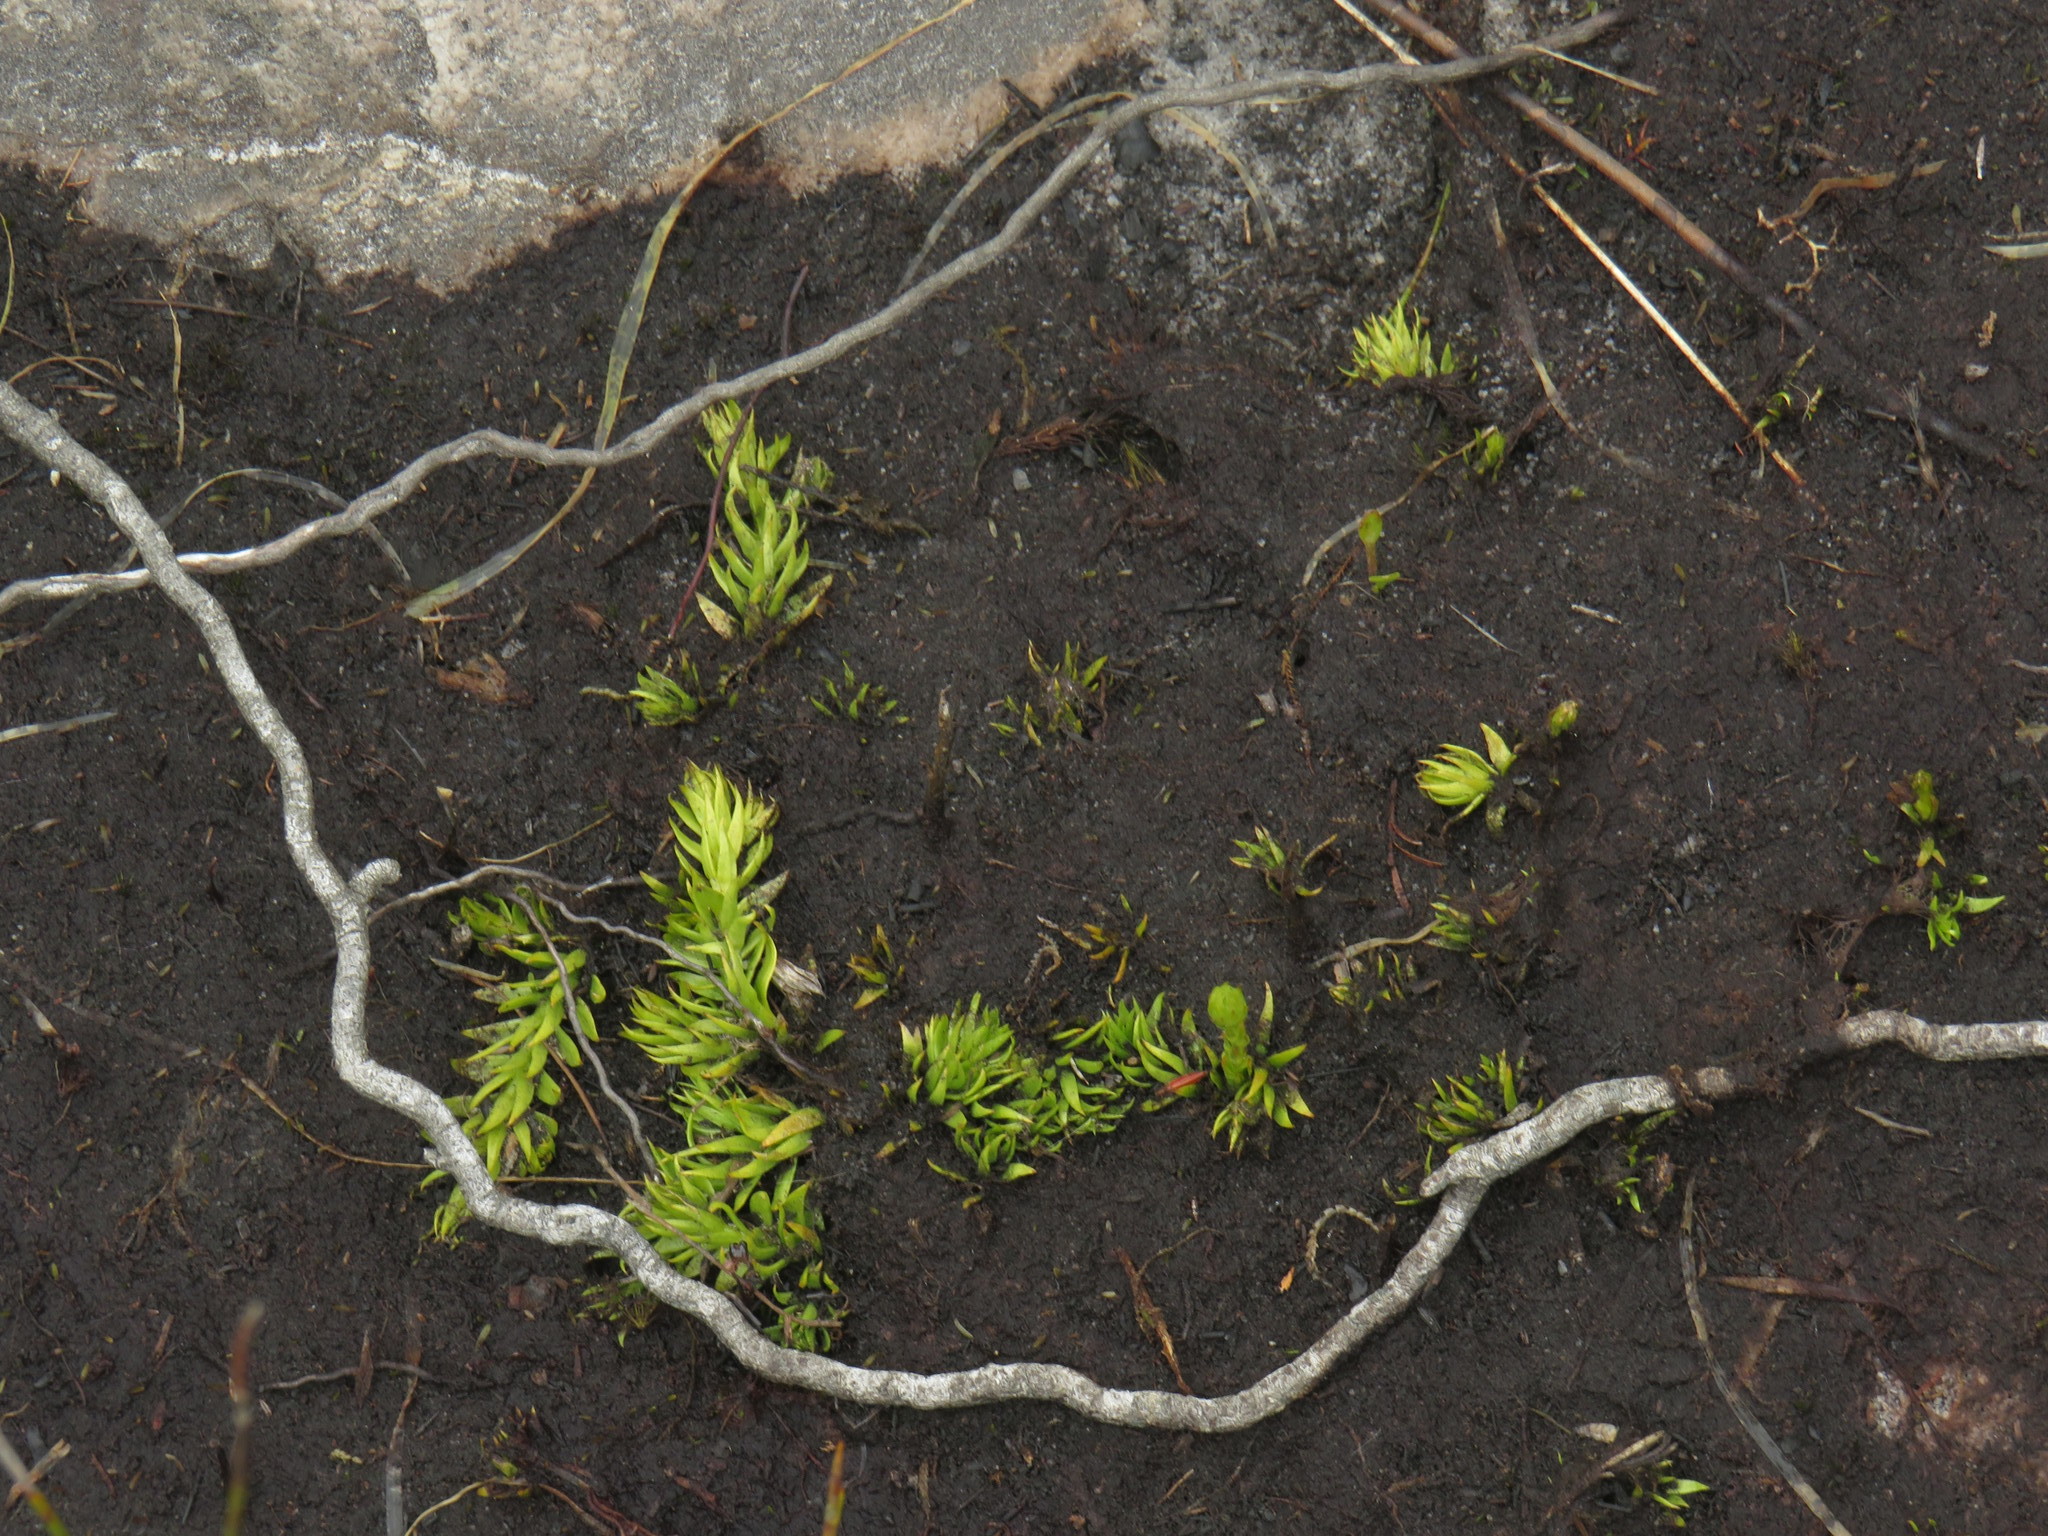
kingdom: Plantae
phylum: Tracheophyta
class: Lycopodiopsida
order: Lycopodiales
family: Lycopodiaceae
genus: Pseudolycopodiella
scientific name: Pseudolycopodiella caroliniana
